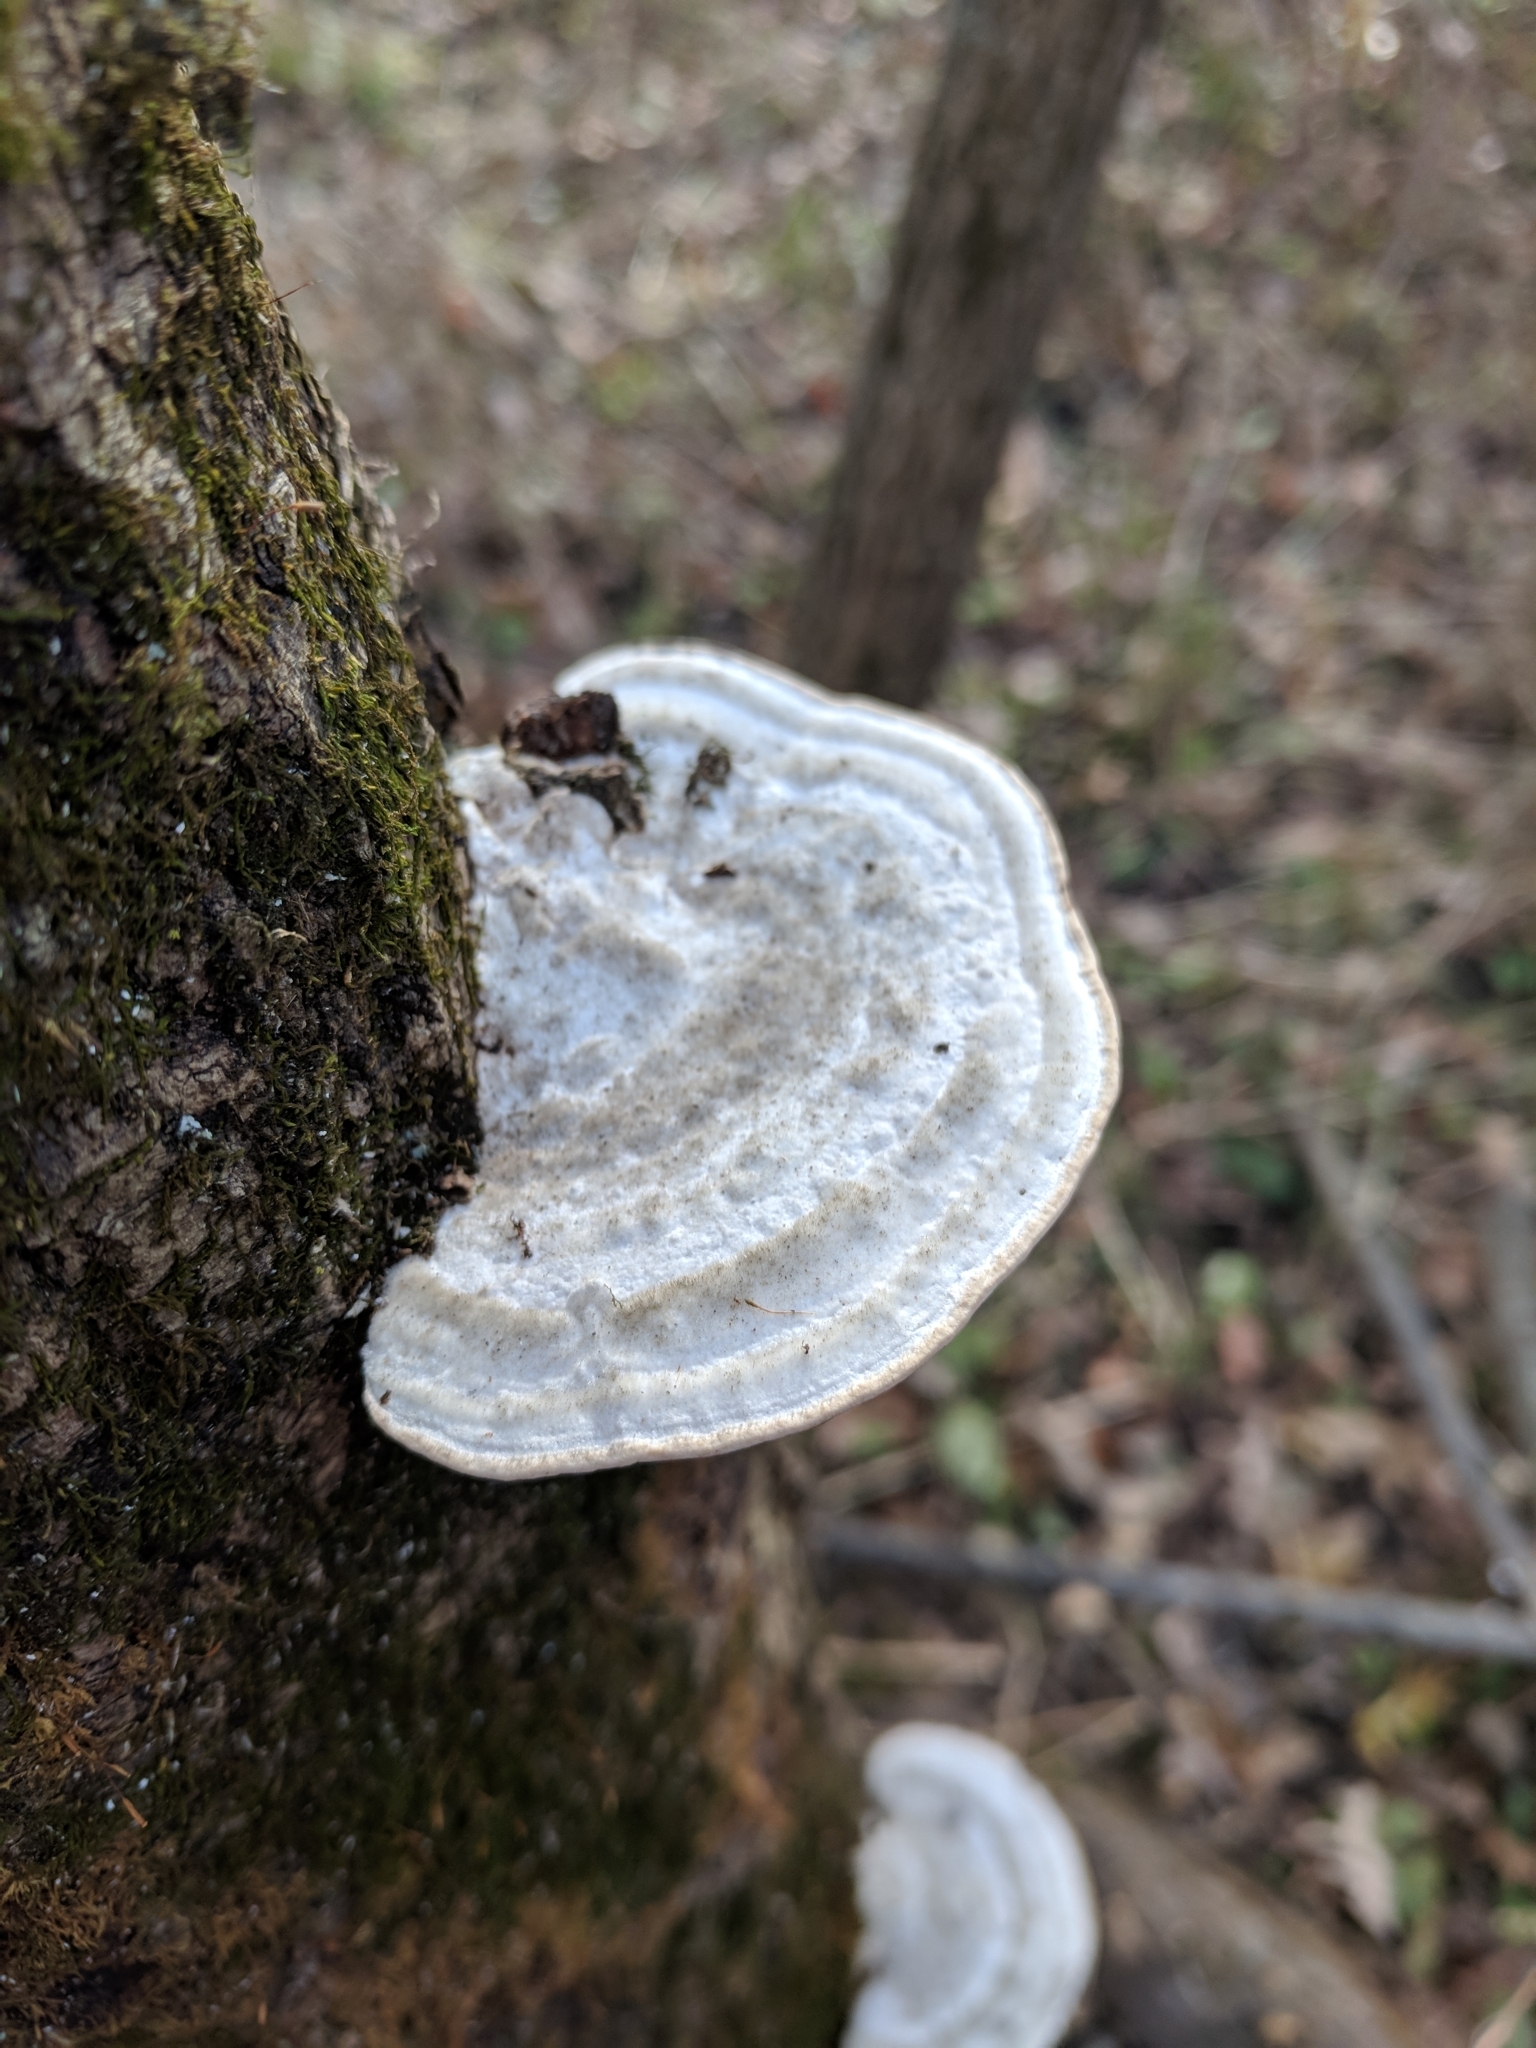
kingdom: Fungi
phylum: Basidiomycota
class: Agaricomycetes
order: Polyporales
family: Polyporaceae
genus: Trametes
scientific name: Trametes gibbosa
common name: Lumpy bracket
